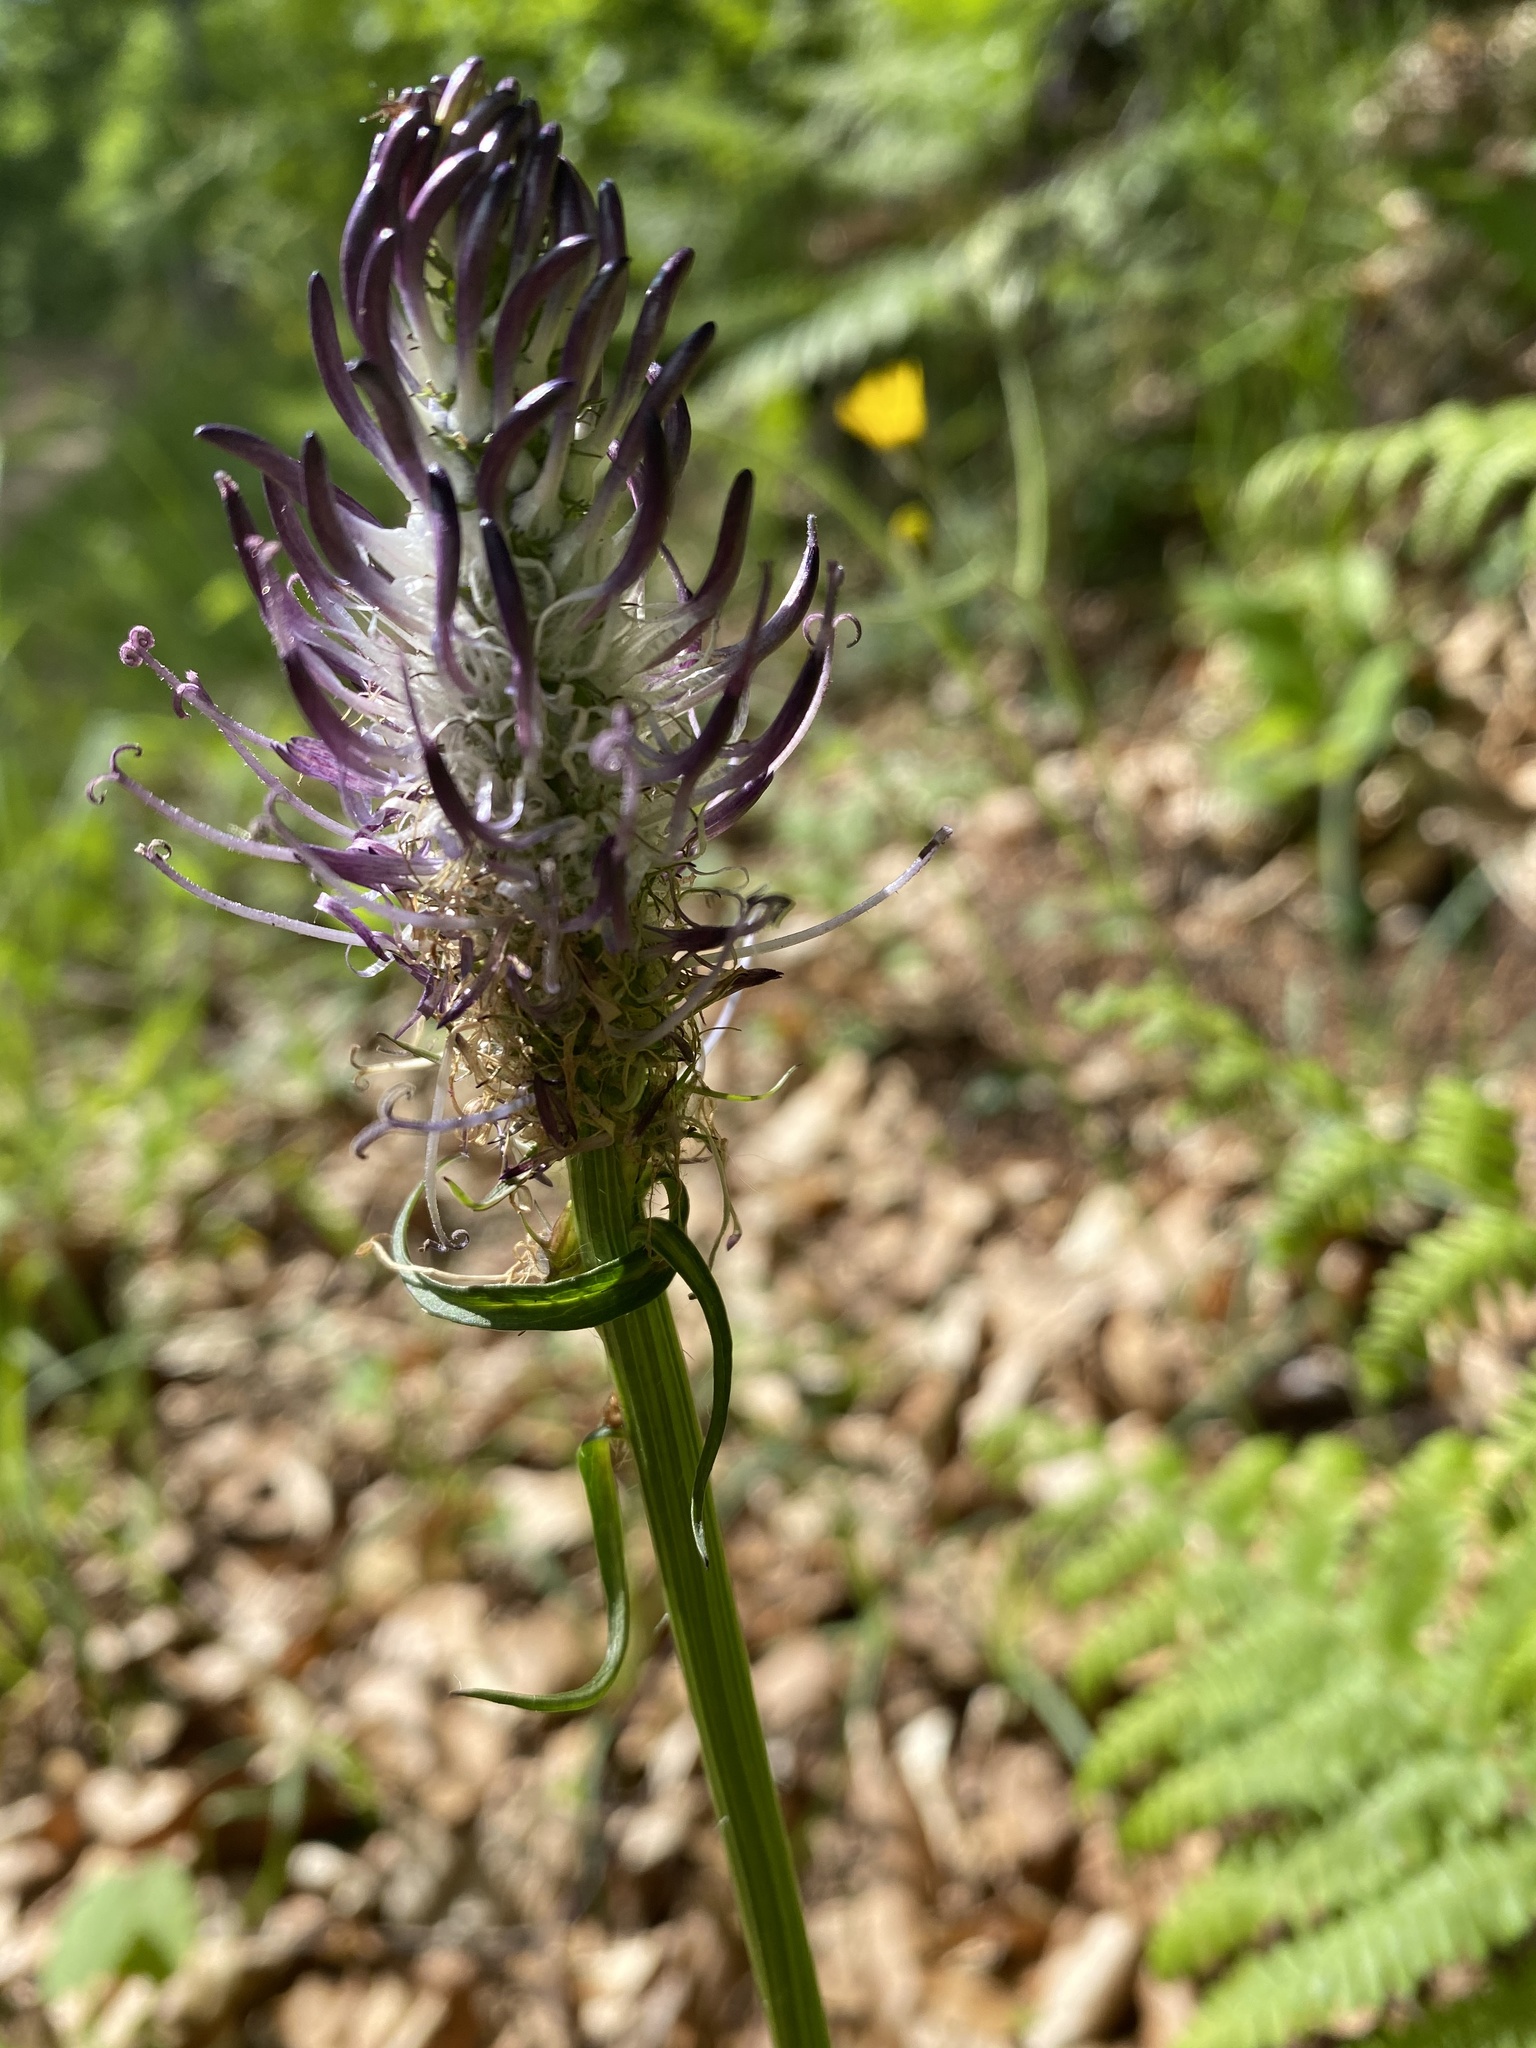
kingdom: Plantae
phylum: Tracheophyta
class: Magnoliopsida
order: Asterales
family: Campanulaceae
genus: Phyteuma
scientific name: Phyteuma nigrum
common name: Black rampion
